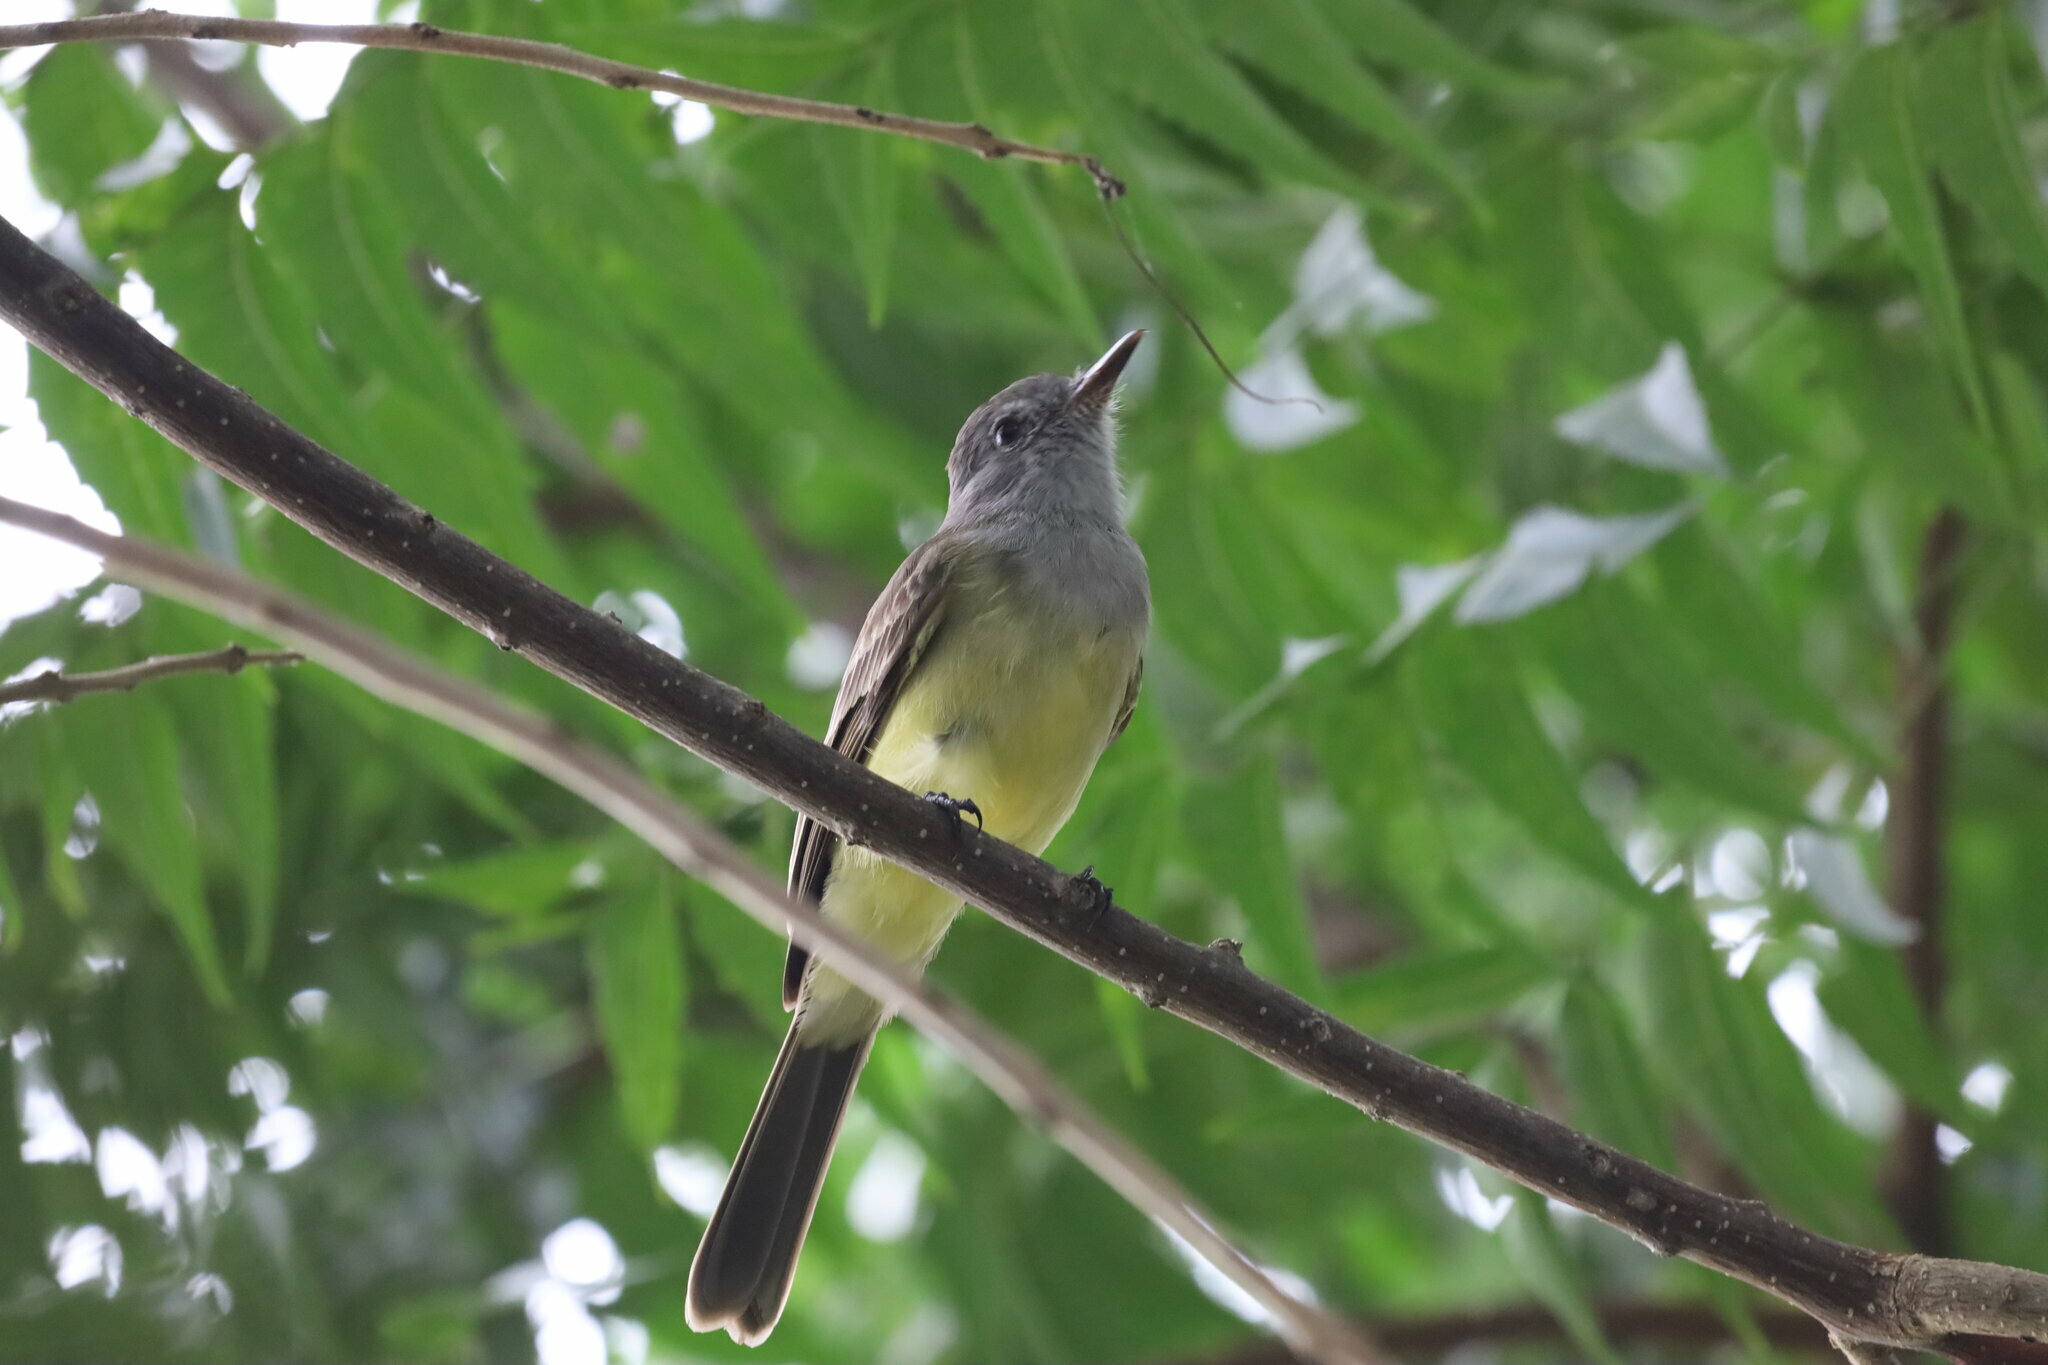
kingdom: Animalia
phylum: Chordata
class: Aves
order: Passeriformes
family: Tyrannidae
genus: Myiarchus
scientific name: Myiarchus panamensis
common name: Panama flycatcher
